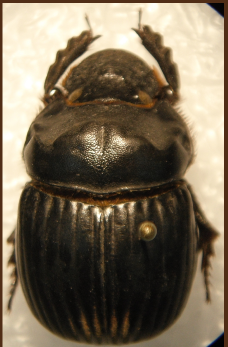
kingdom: Animalia
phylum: Arthropoda
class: Insecta
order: Coleoptera
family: Scarabaeidae
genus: Dichotomius
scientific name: Dichotomius colonicus
